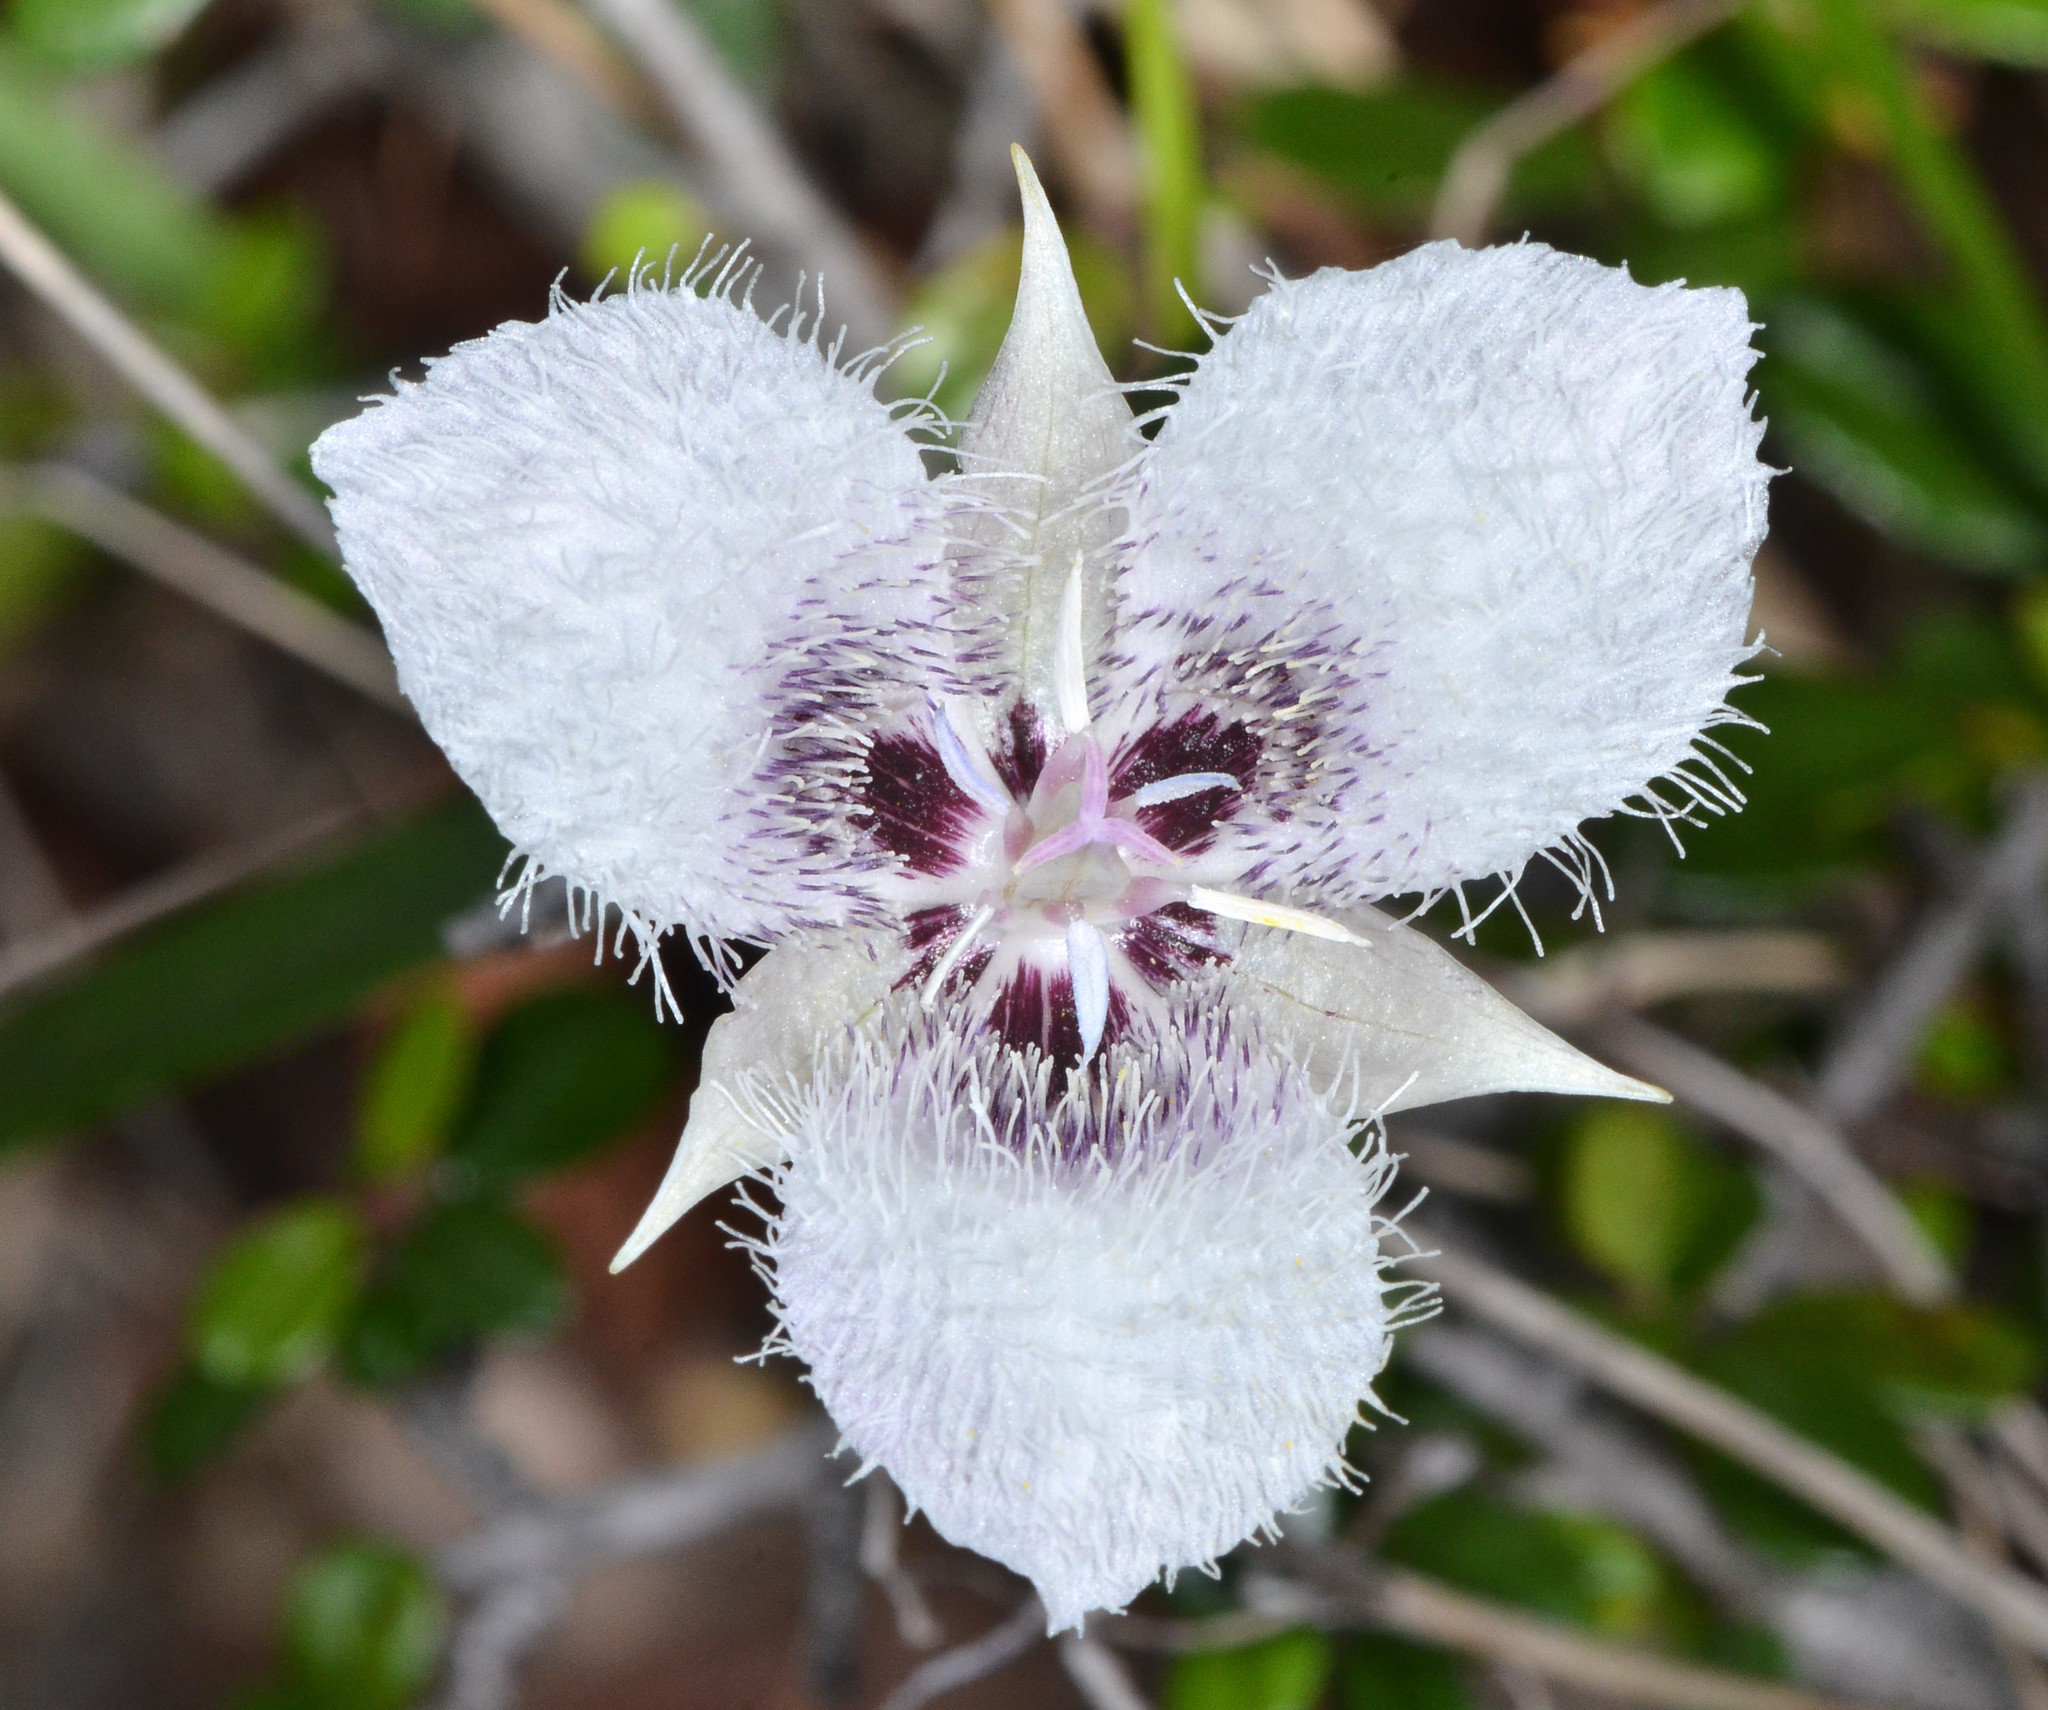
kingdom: Plantae
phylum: Tracheophyta
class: Liliopsida
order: Liliales
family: Liliaceae
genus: Calochortus
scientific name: Calochortus tolmiei
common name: Pussy-ears
